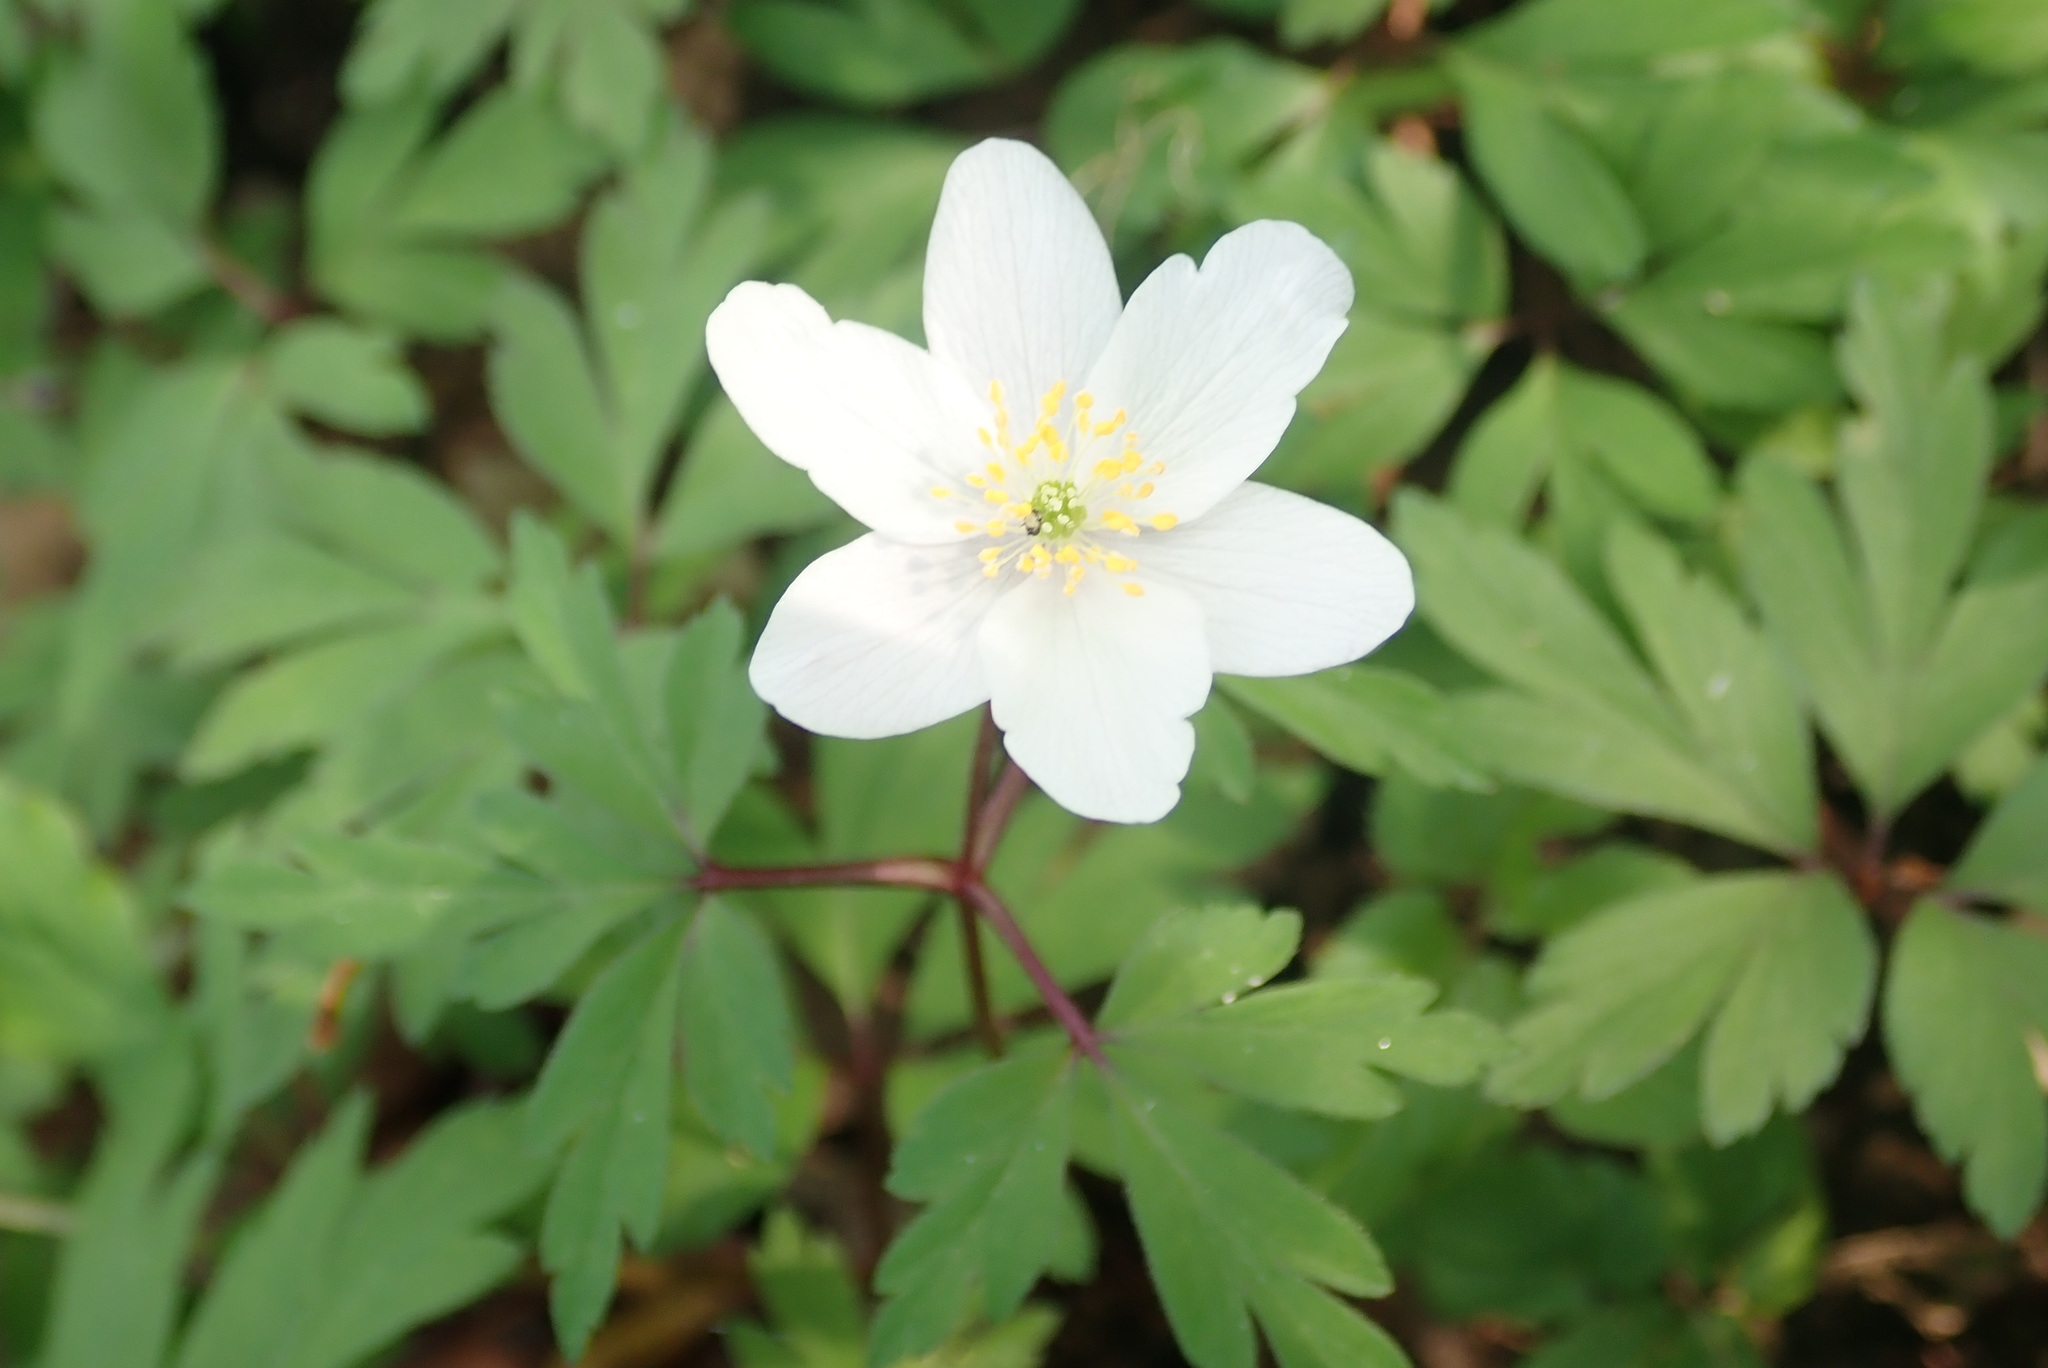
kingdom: Plantae
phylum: Tracheophyta
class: Magnoliopsida
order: Ranunculales
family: Ranunculaceae
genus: Anemone
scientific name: Anemone nemorosa
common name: Wood anemone
